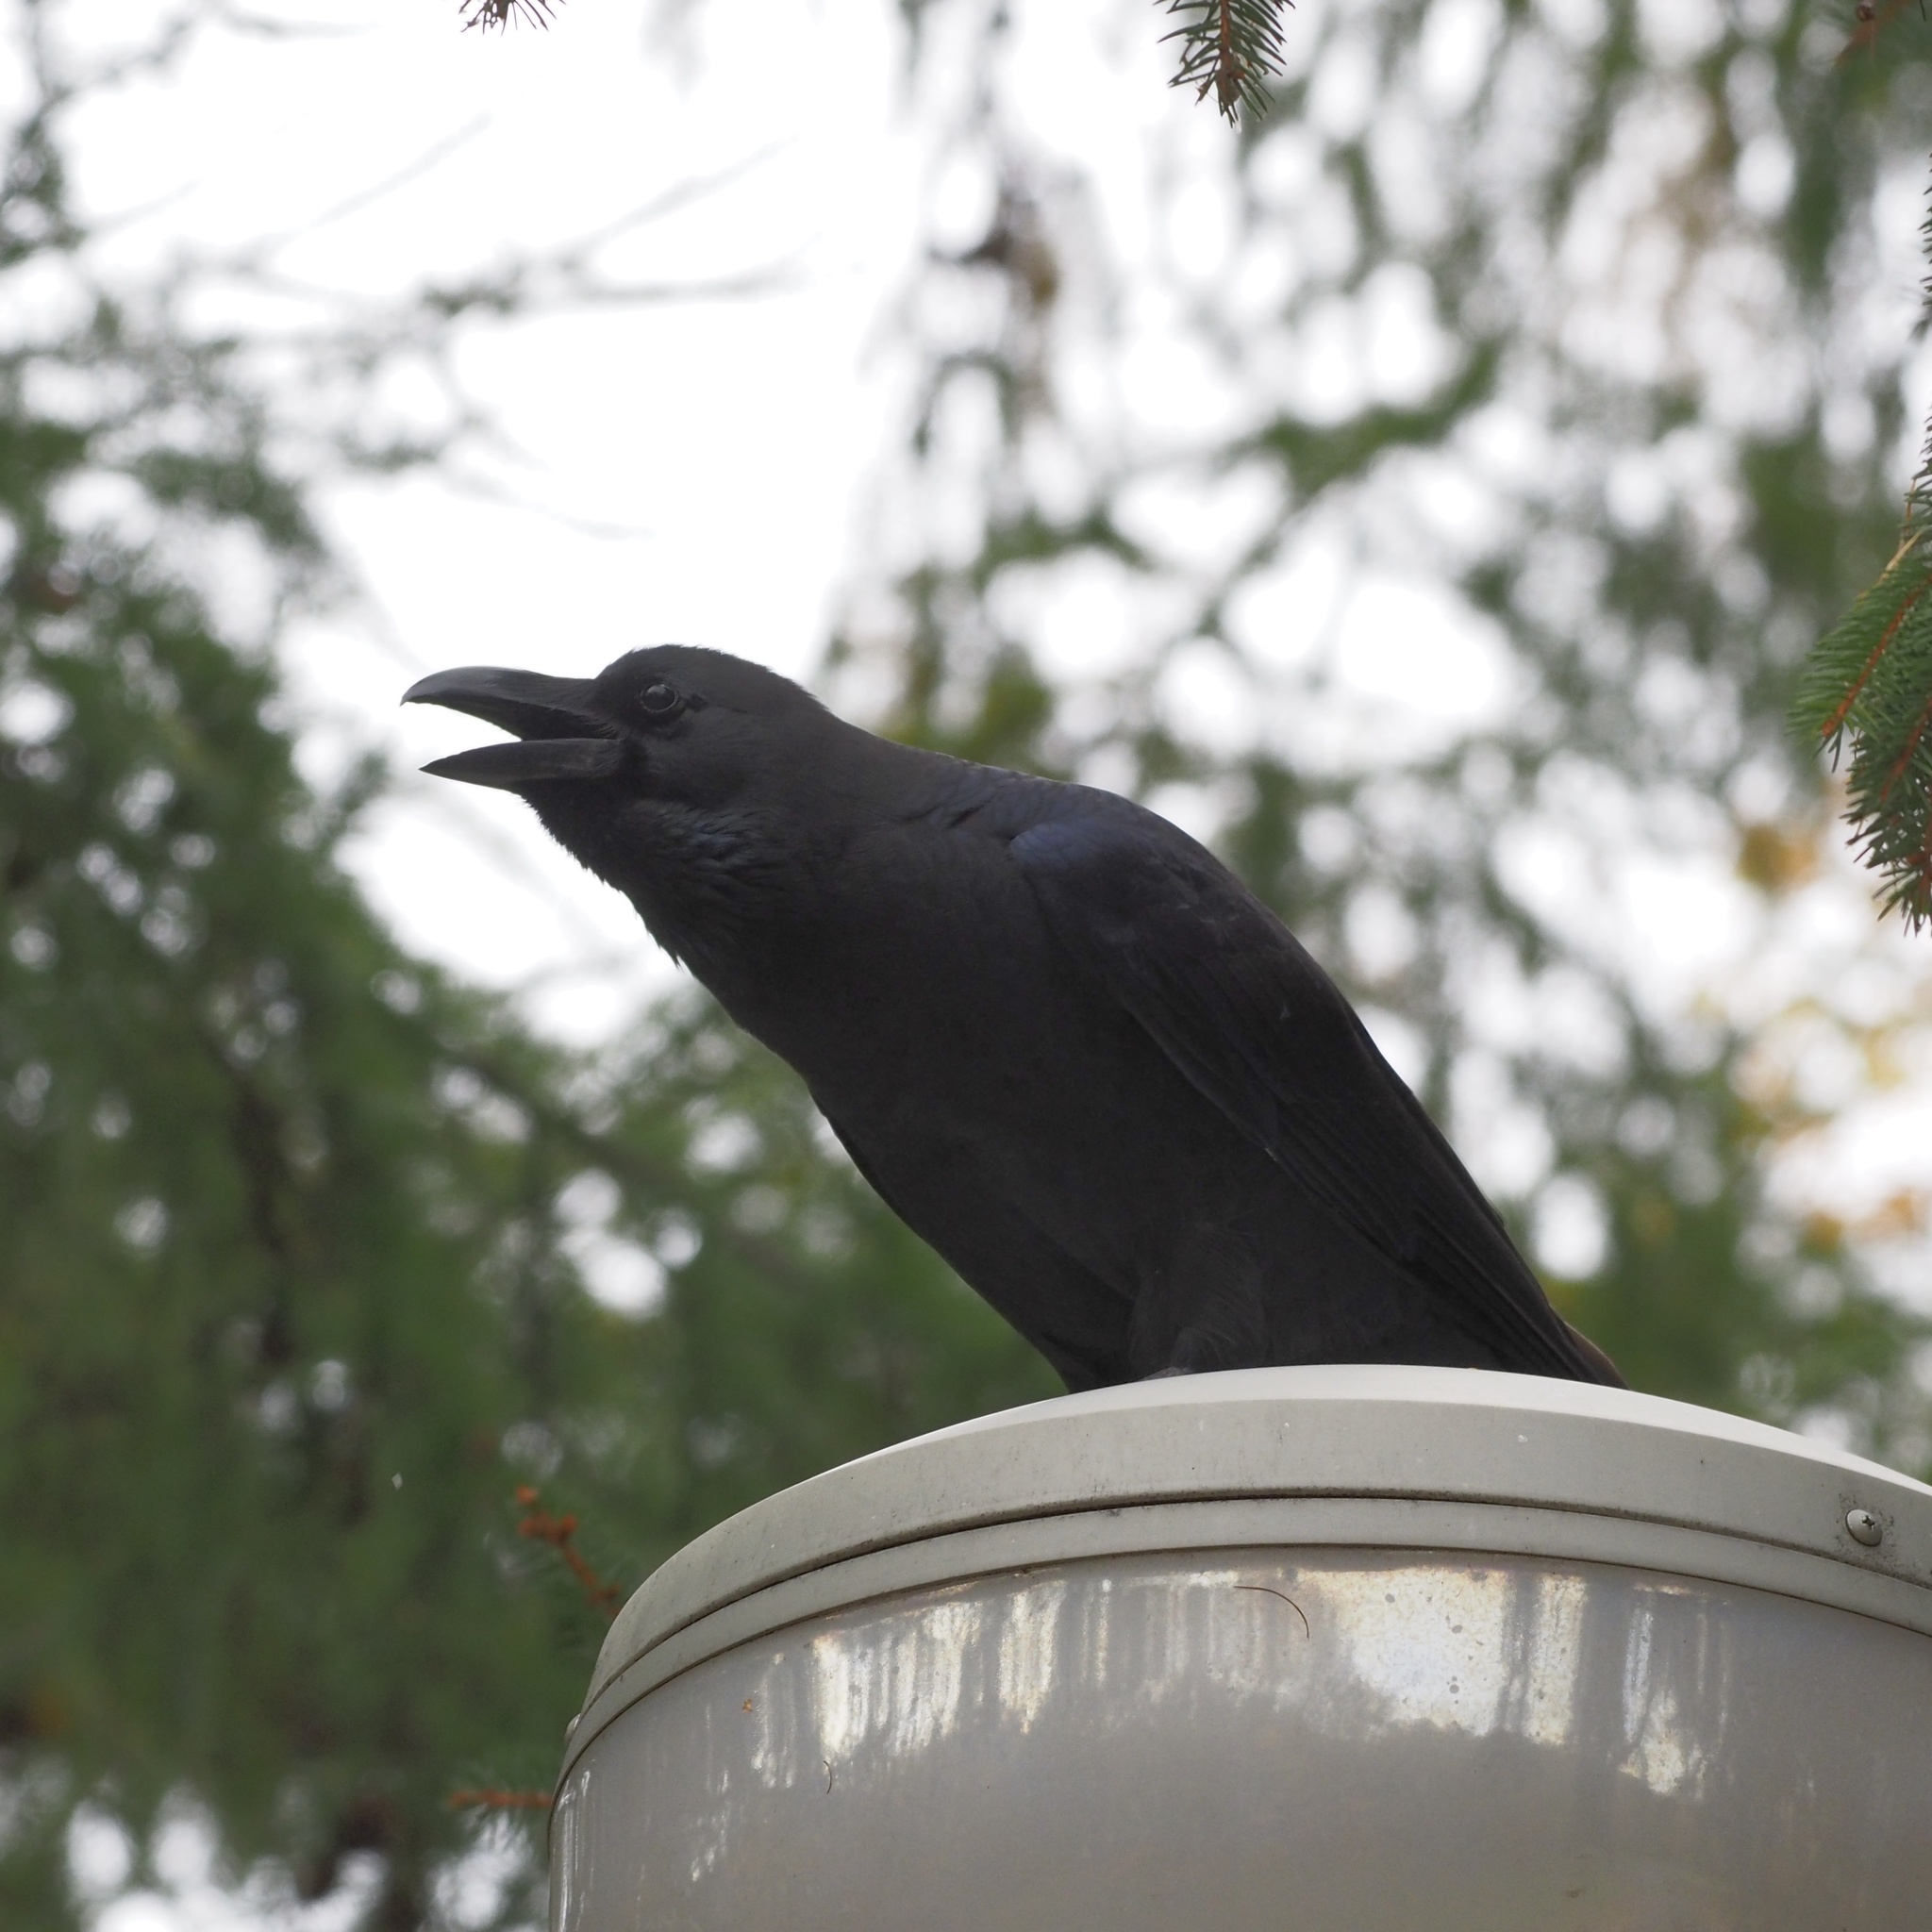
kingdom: Animalia
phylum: Chordata
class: Aves
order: Passeriformes
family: Corvidae
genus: Corvus
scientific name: Corvus macrorhynchos
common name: Large-billed crow
